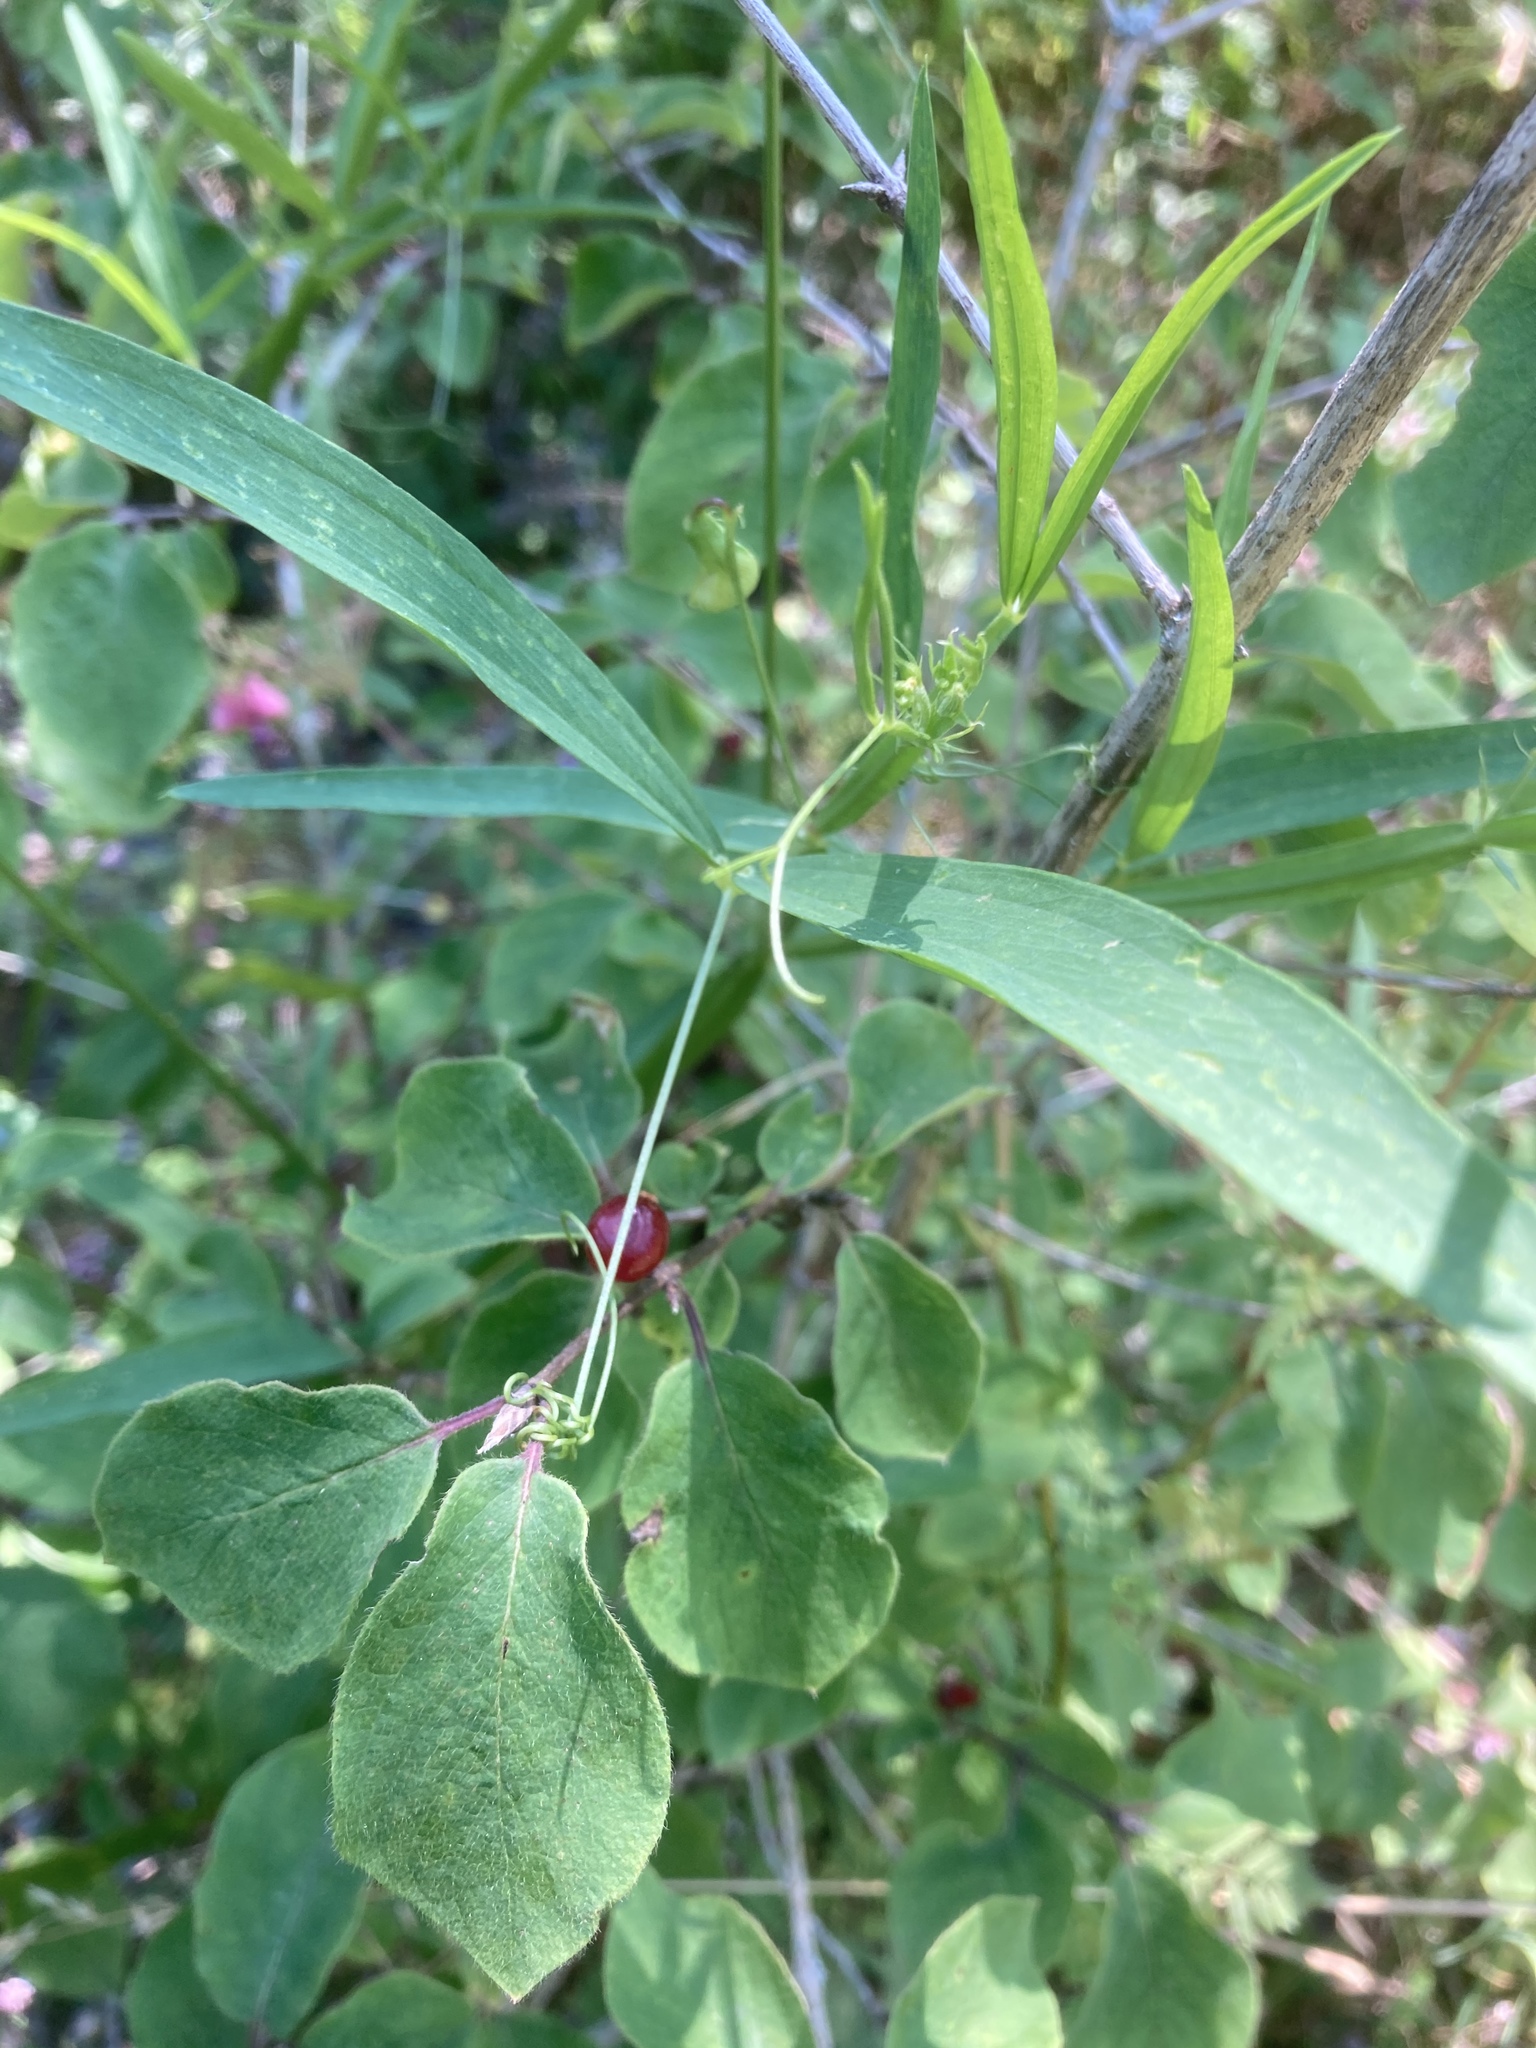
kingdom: Plantae
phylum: Tracheophyta
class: Magnoliopsida
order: Dipsacales
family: Caprifoliaceae
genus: Lonicera
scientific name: Lonicera xylosteum
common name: Fly honeysuckle
